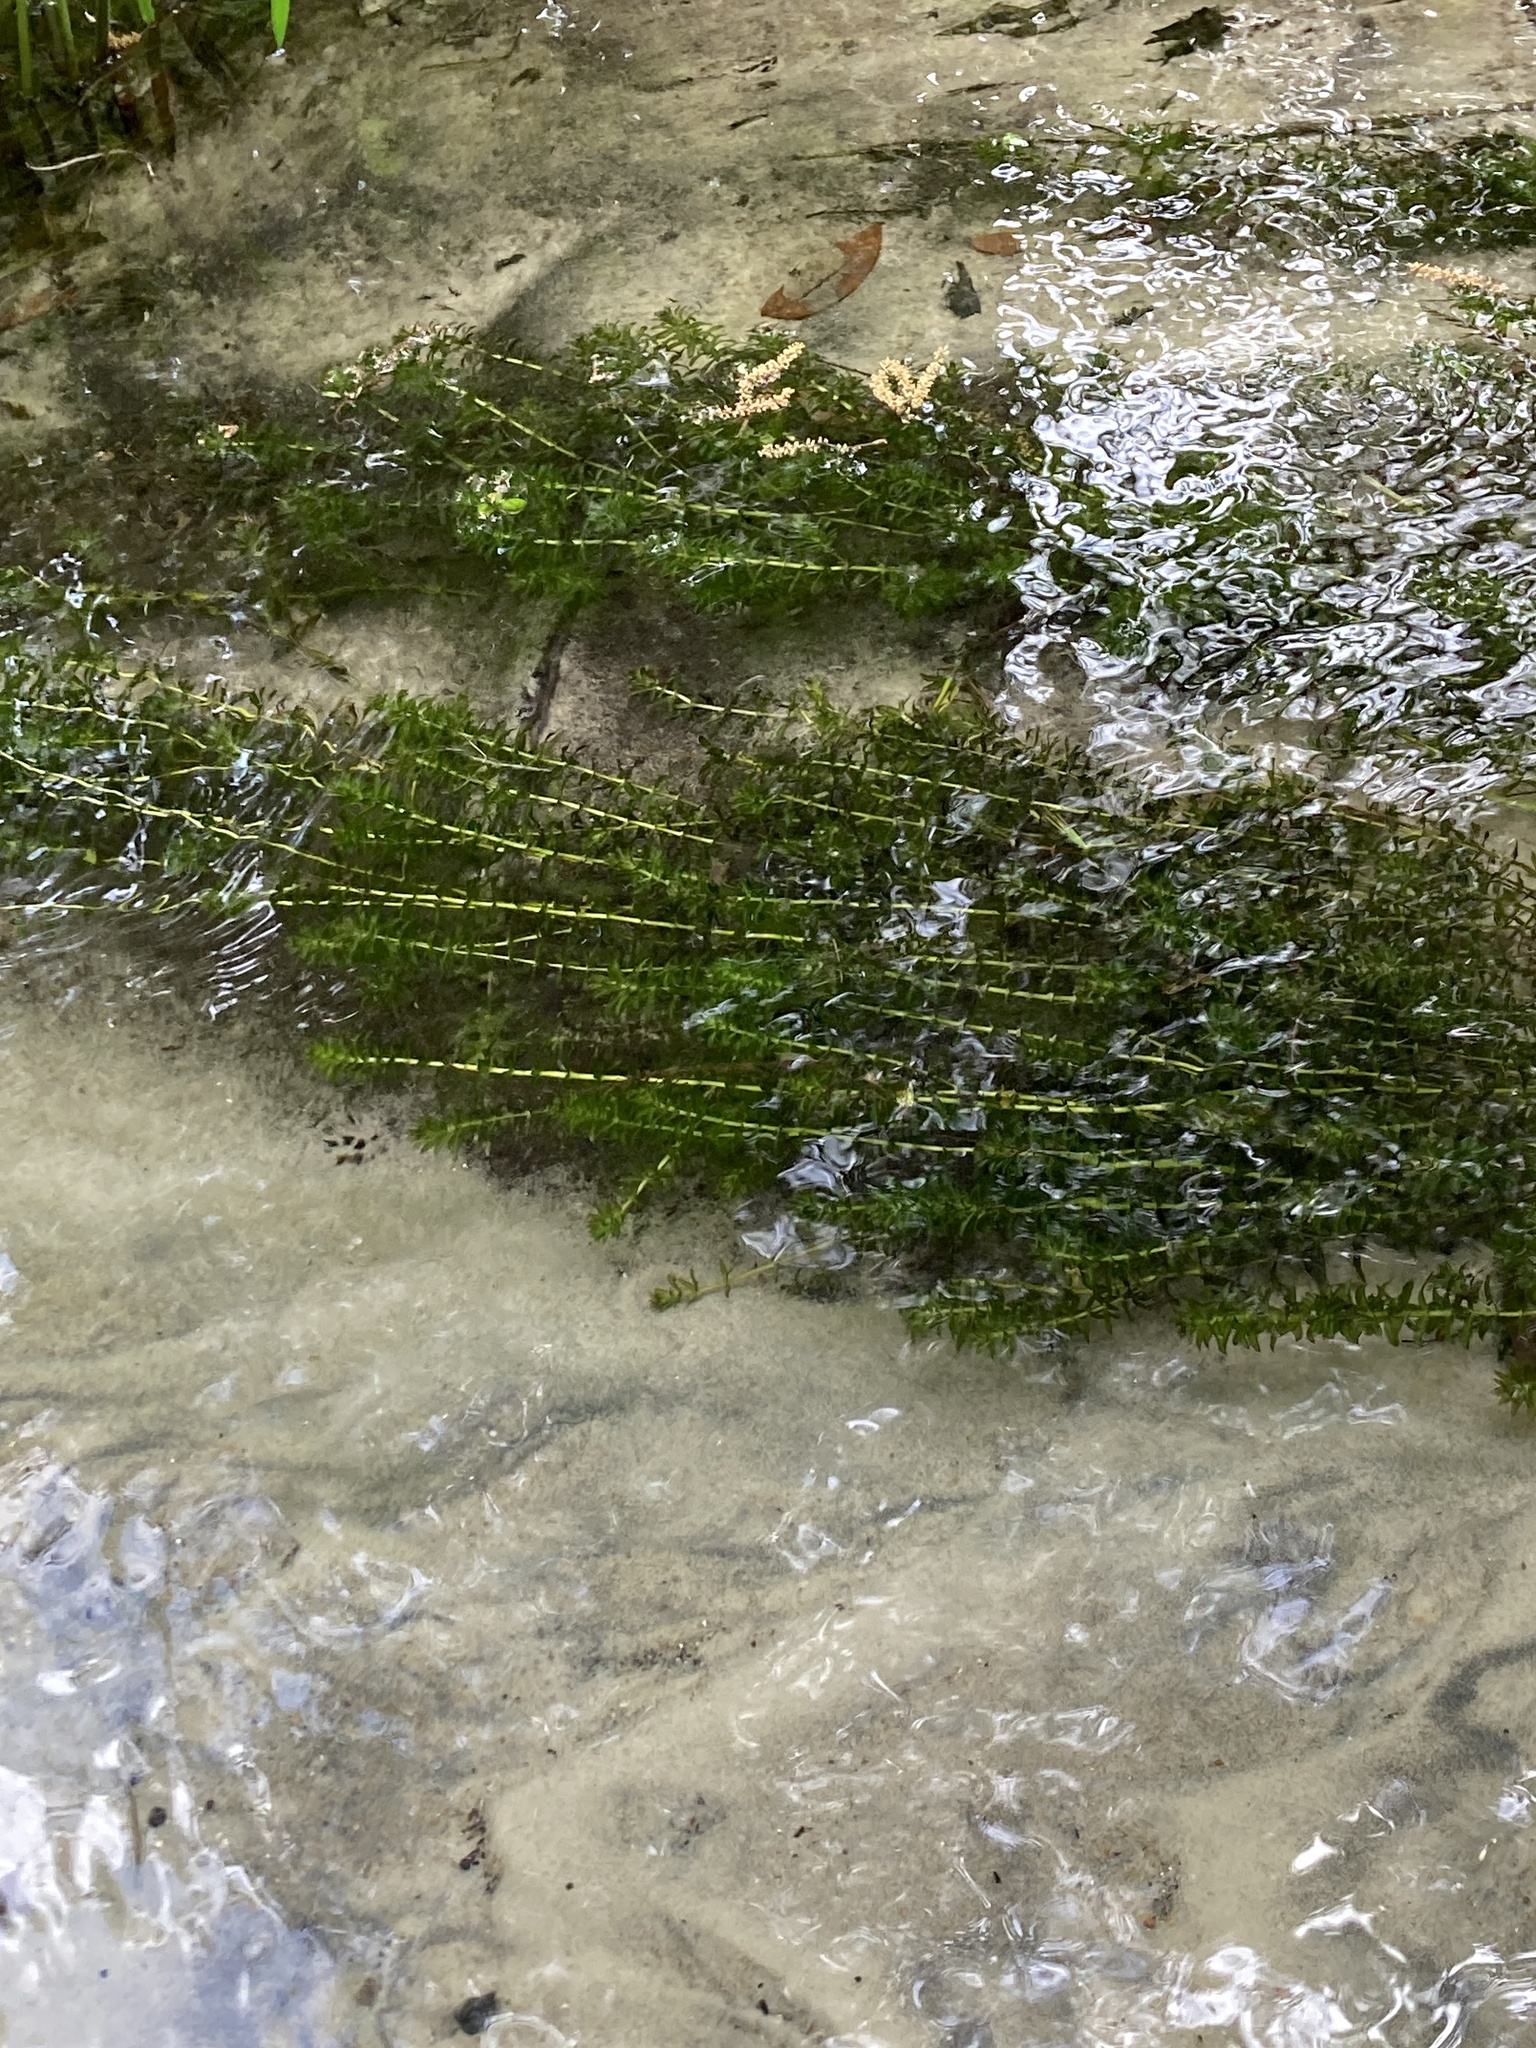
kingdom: Plantae
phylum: Tracheophyta
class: Liliopsida
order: Alismatales
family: Hydrocharitaceae
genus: Hydrilla
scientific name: Hydrilla verticillata
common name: Florida-elodea
